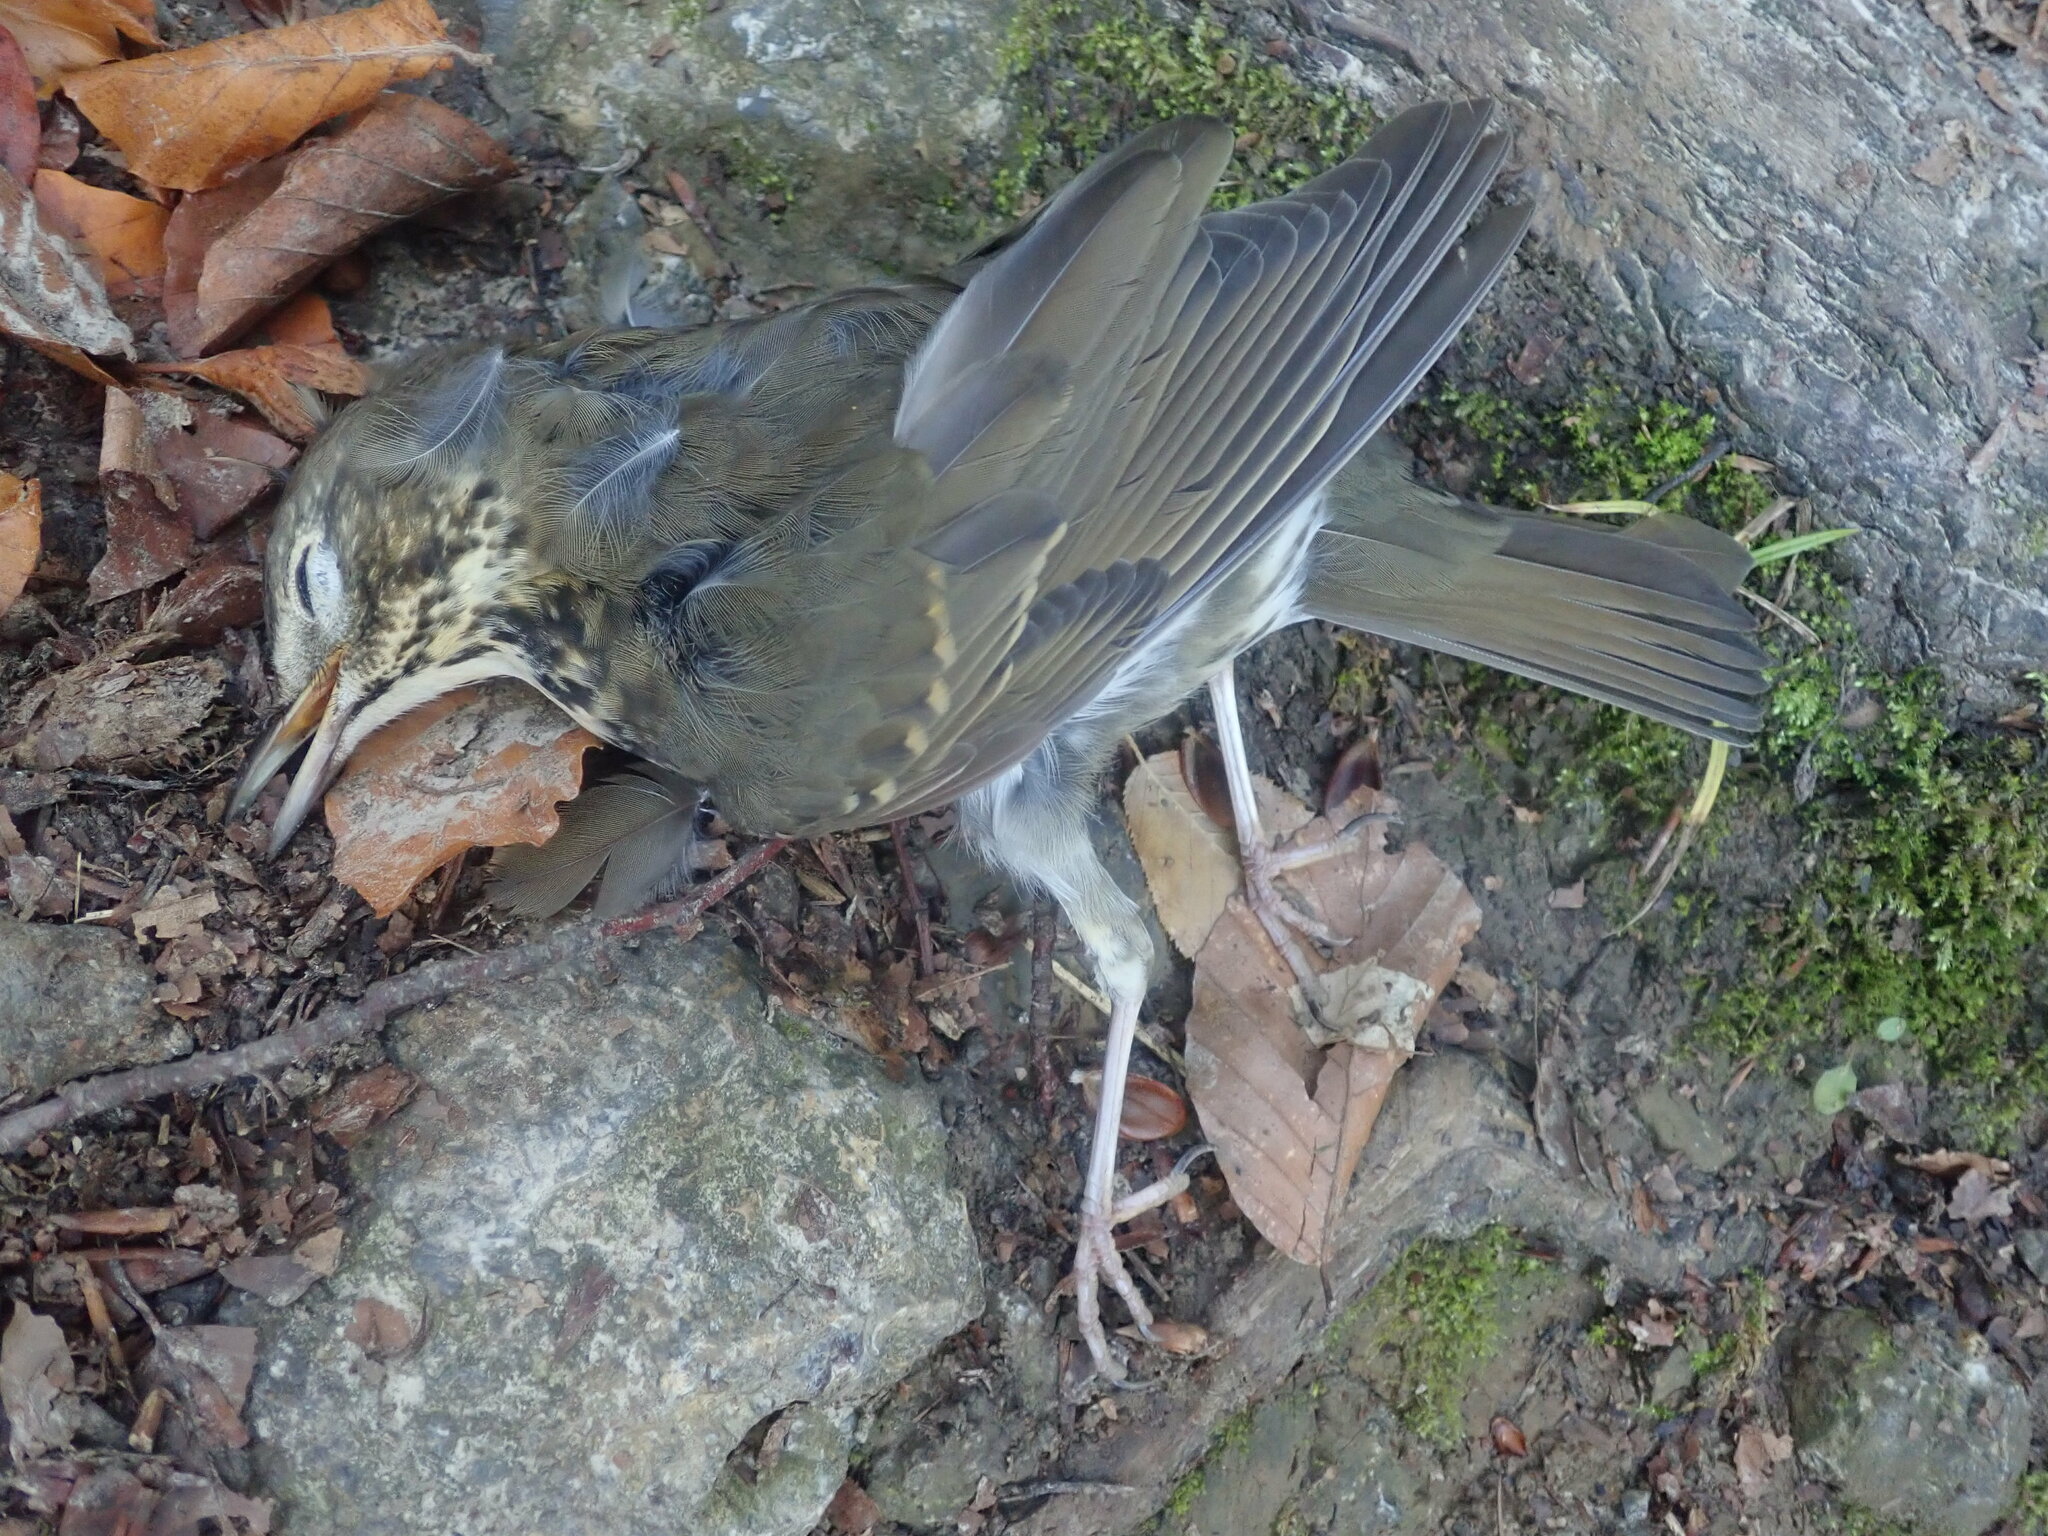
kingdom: Animalia
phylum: Chordata
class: Aves
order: Passeriformes
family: Turdidae
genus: Turdus
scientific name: Turdus philomelos
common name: Song thrush
